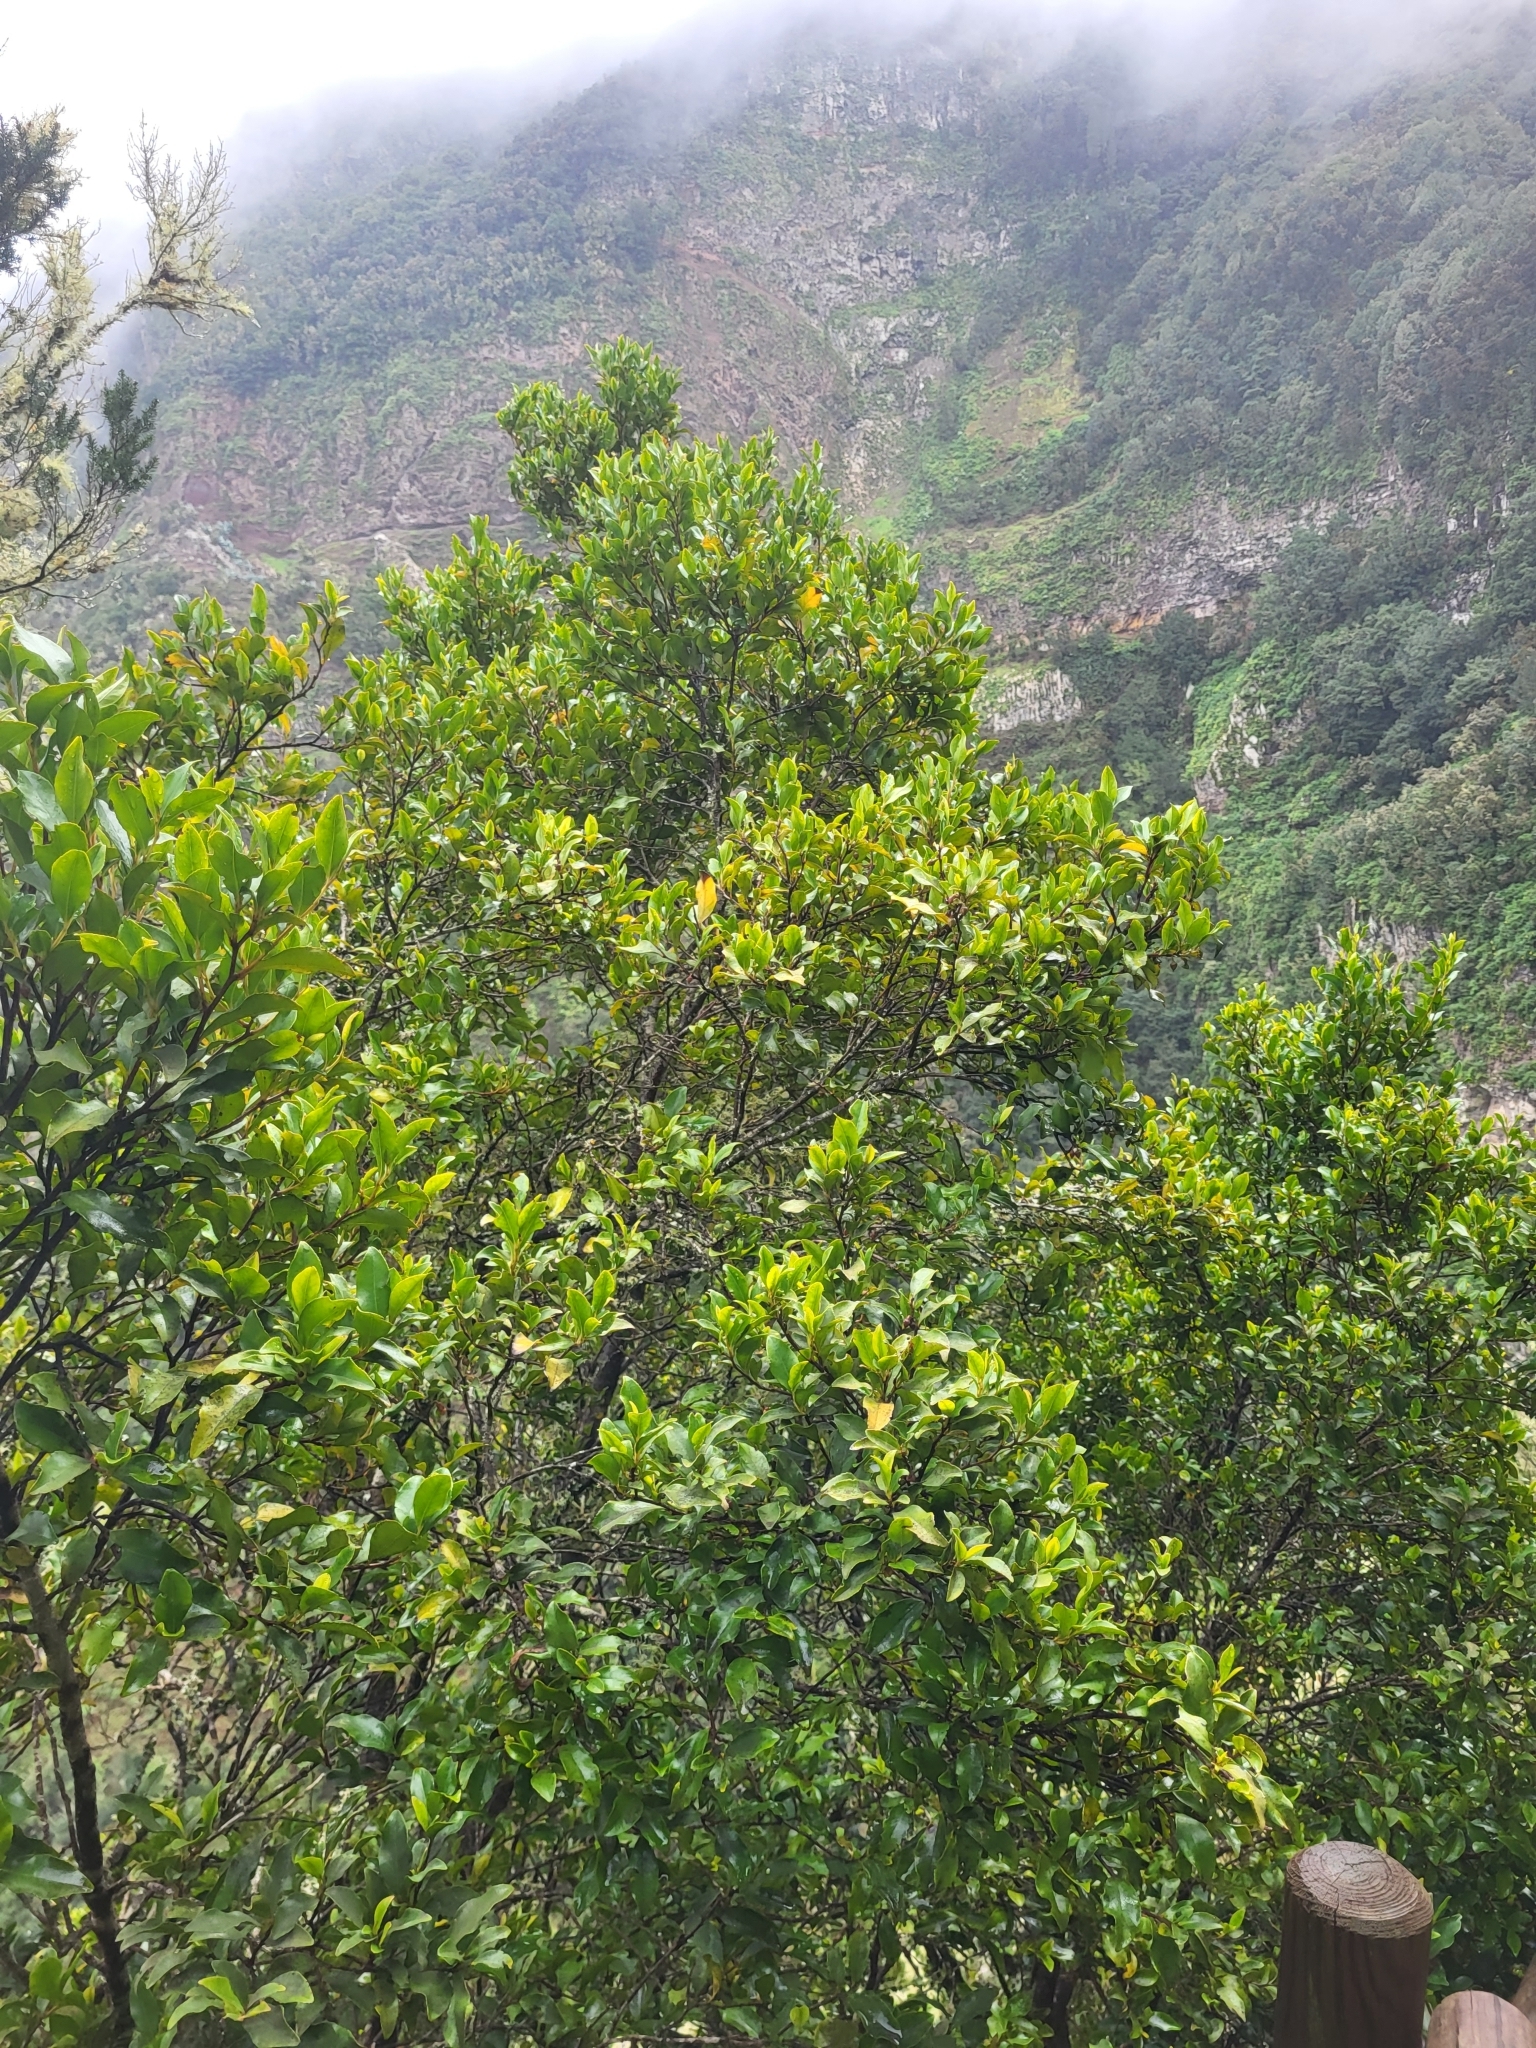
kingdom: Plantae
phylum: Tracheophyta
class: Magnoliopsida
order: Ericales
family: Pentaphylacaceae
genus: Visnea
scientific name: Visnea mocanera
